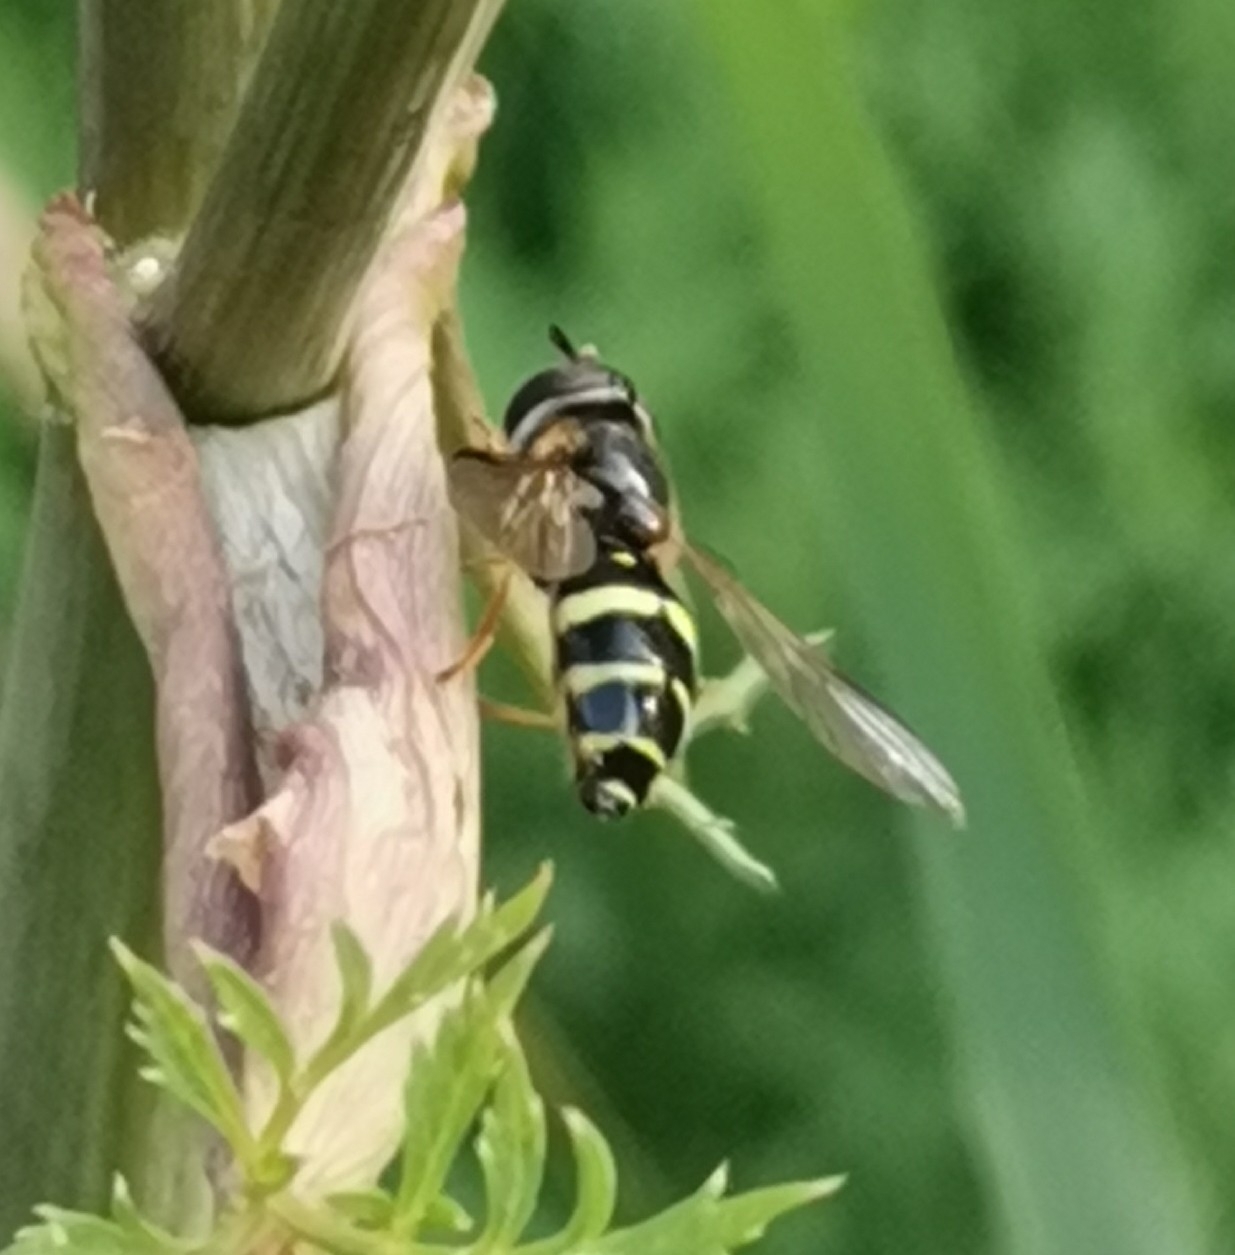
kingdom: Animalia
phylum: Arthropoda
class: Insecta
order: Diptera
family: Syrphidae
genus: Dasysyrphus
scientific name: Dasysyrphus tricinctus
